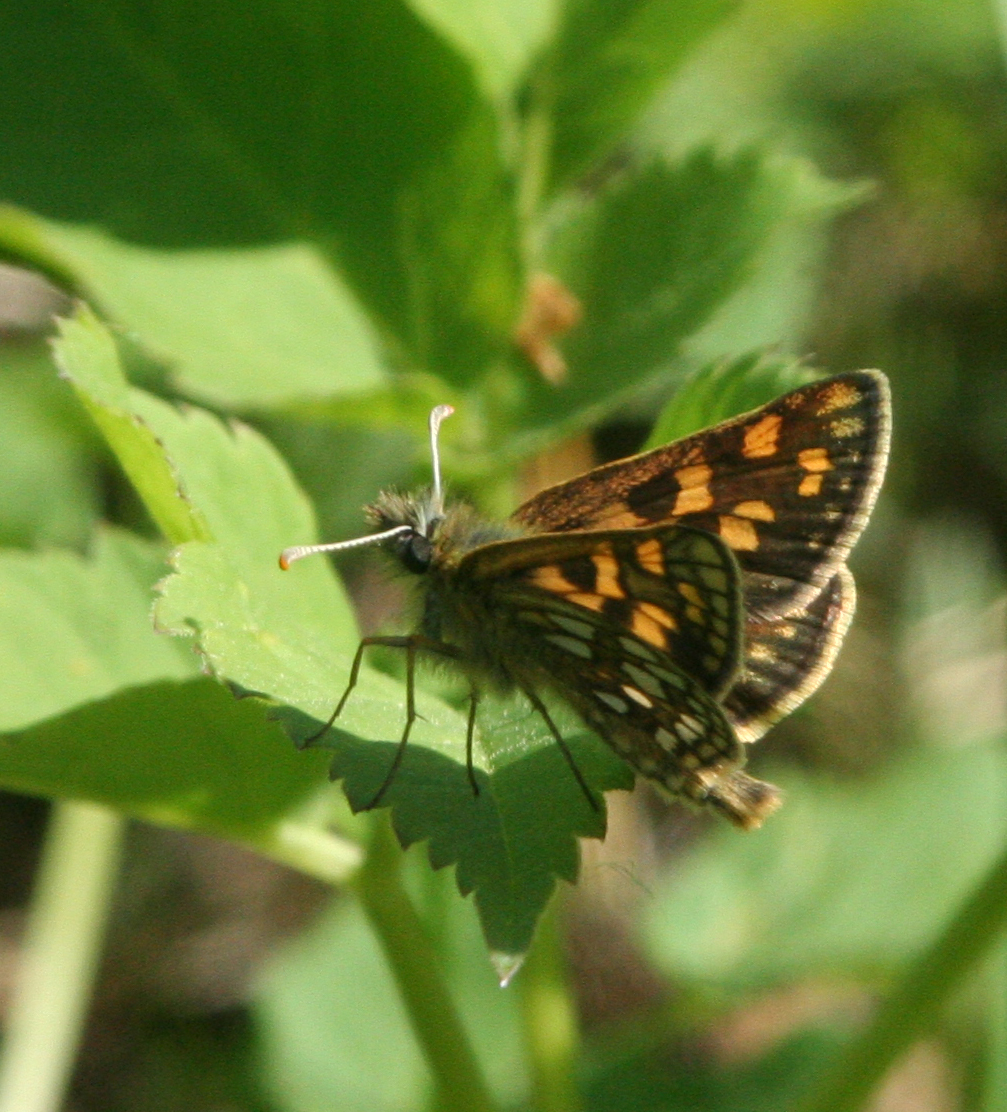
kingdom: Animalia
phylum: Arthropoda
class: Insecta
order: Lepidoptera
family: Hesperiidae
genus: Carterocephalus
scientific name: Carterocephalus palaemon
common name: Chequered skipper
